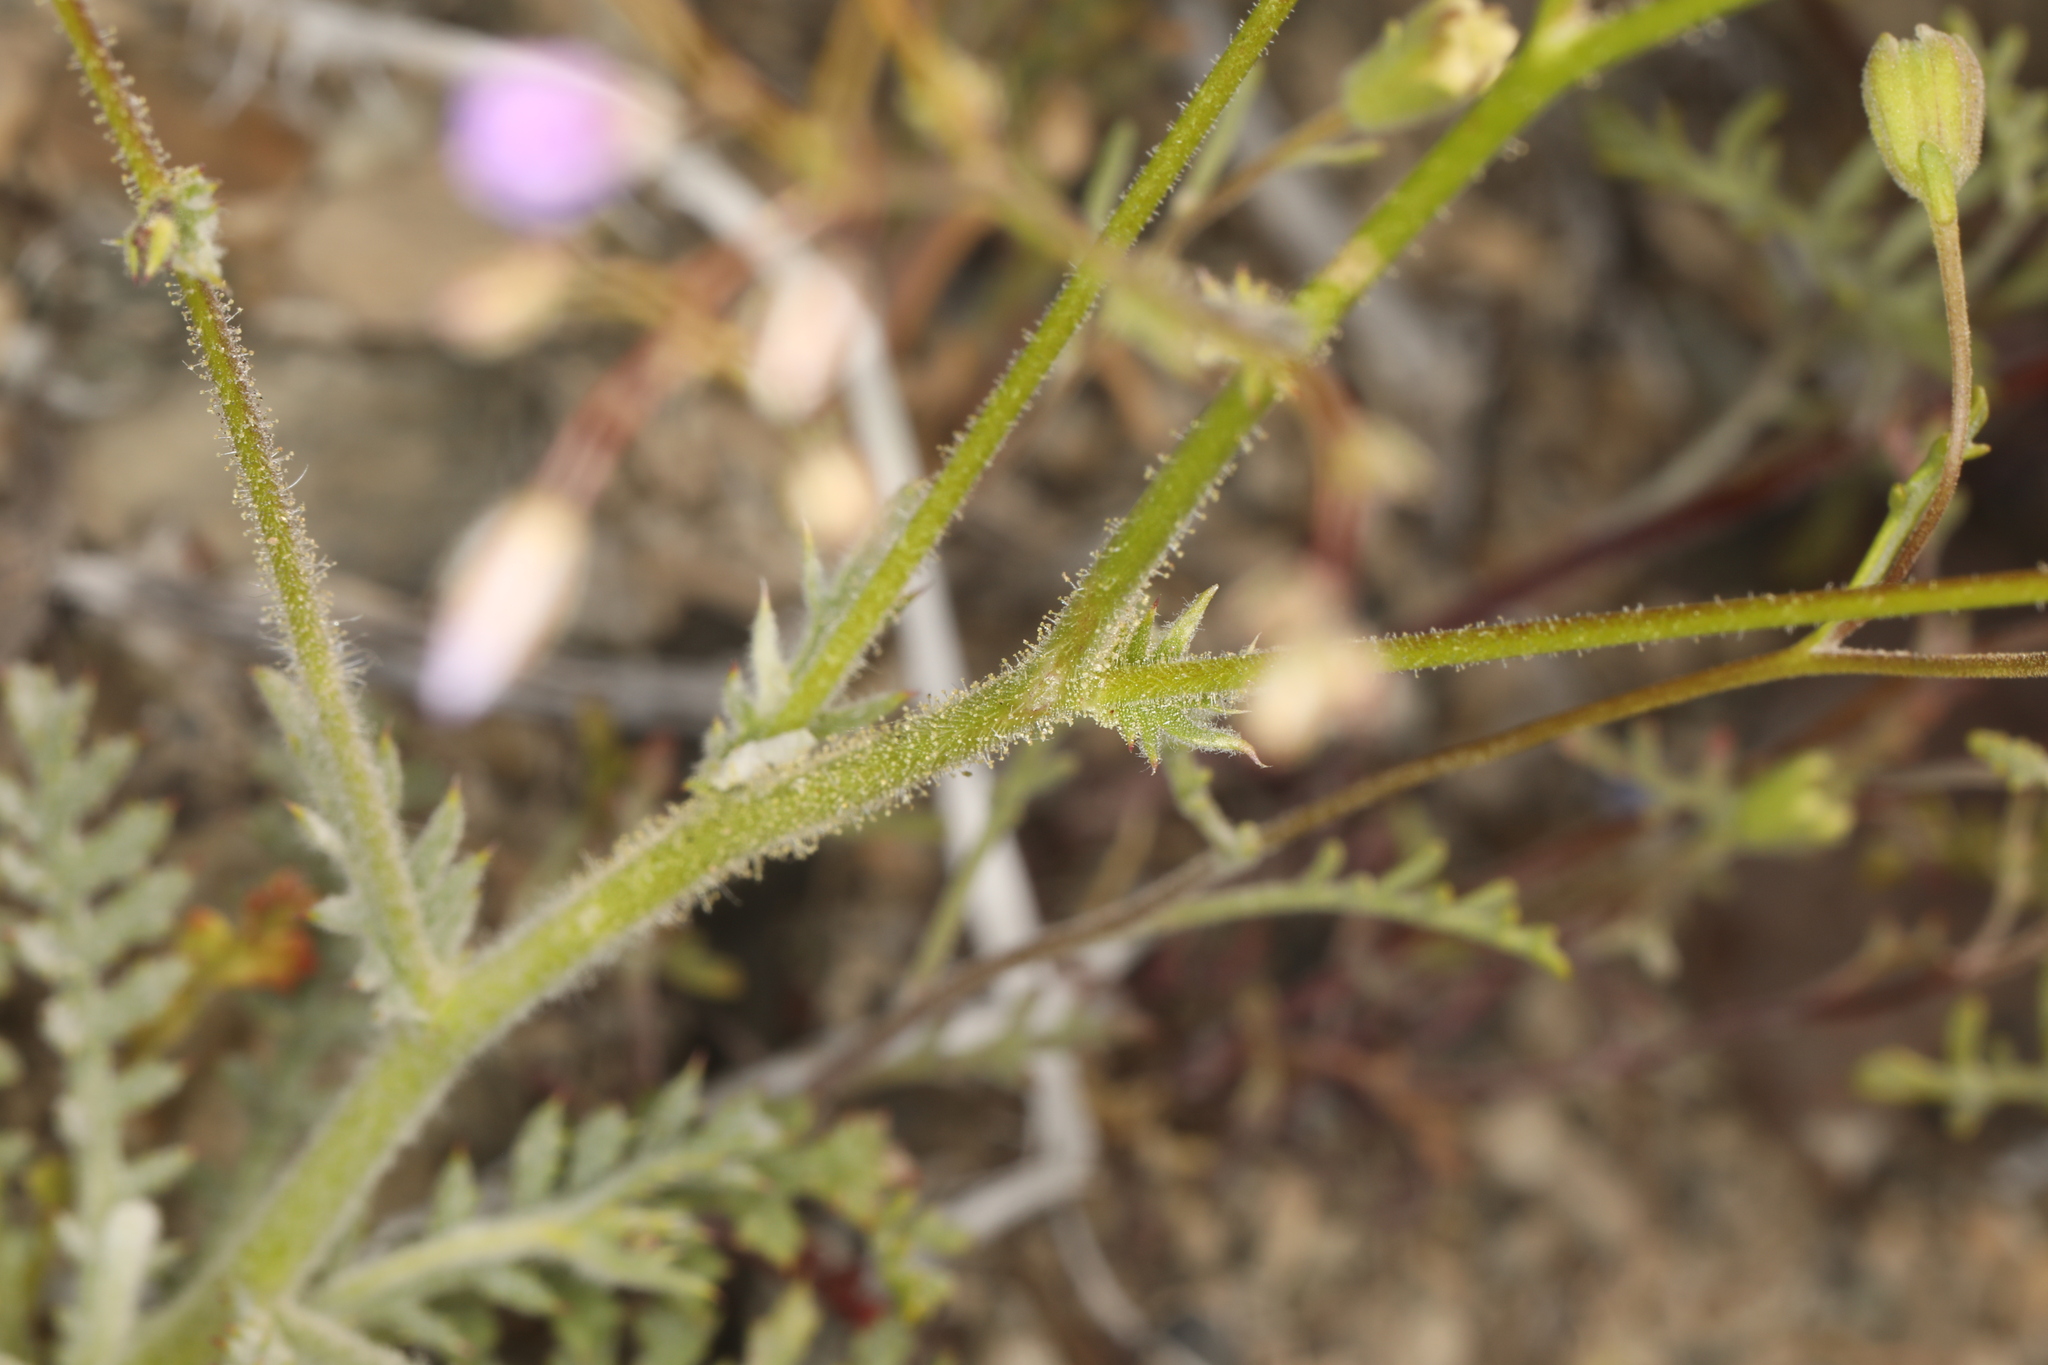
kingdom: Plantae
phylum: Tracheophyta
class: Magnoliopsida
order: Ericales
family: Polemoniaceae
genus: Gilia
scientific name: Gilia cana
